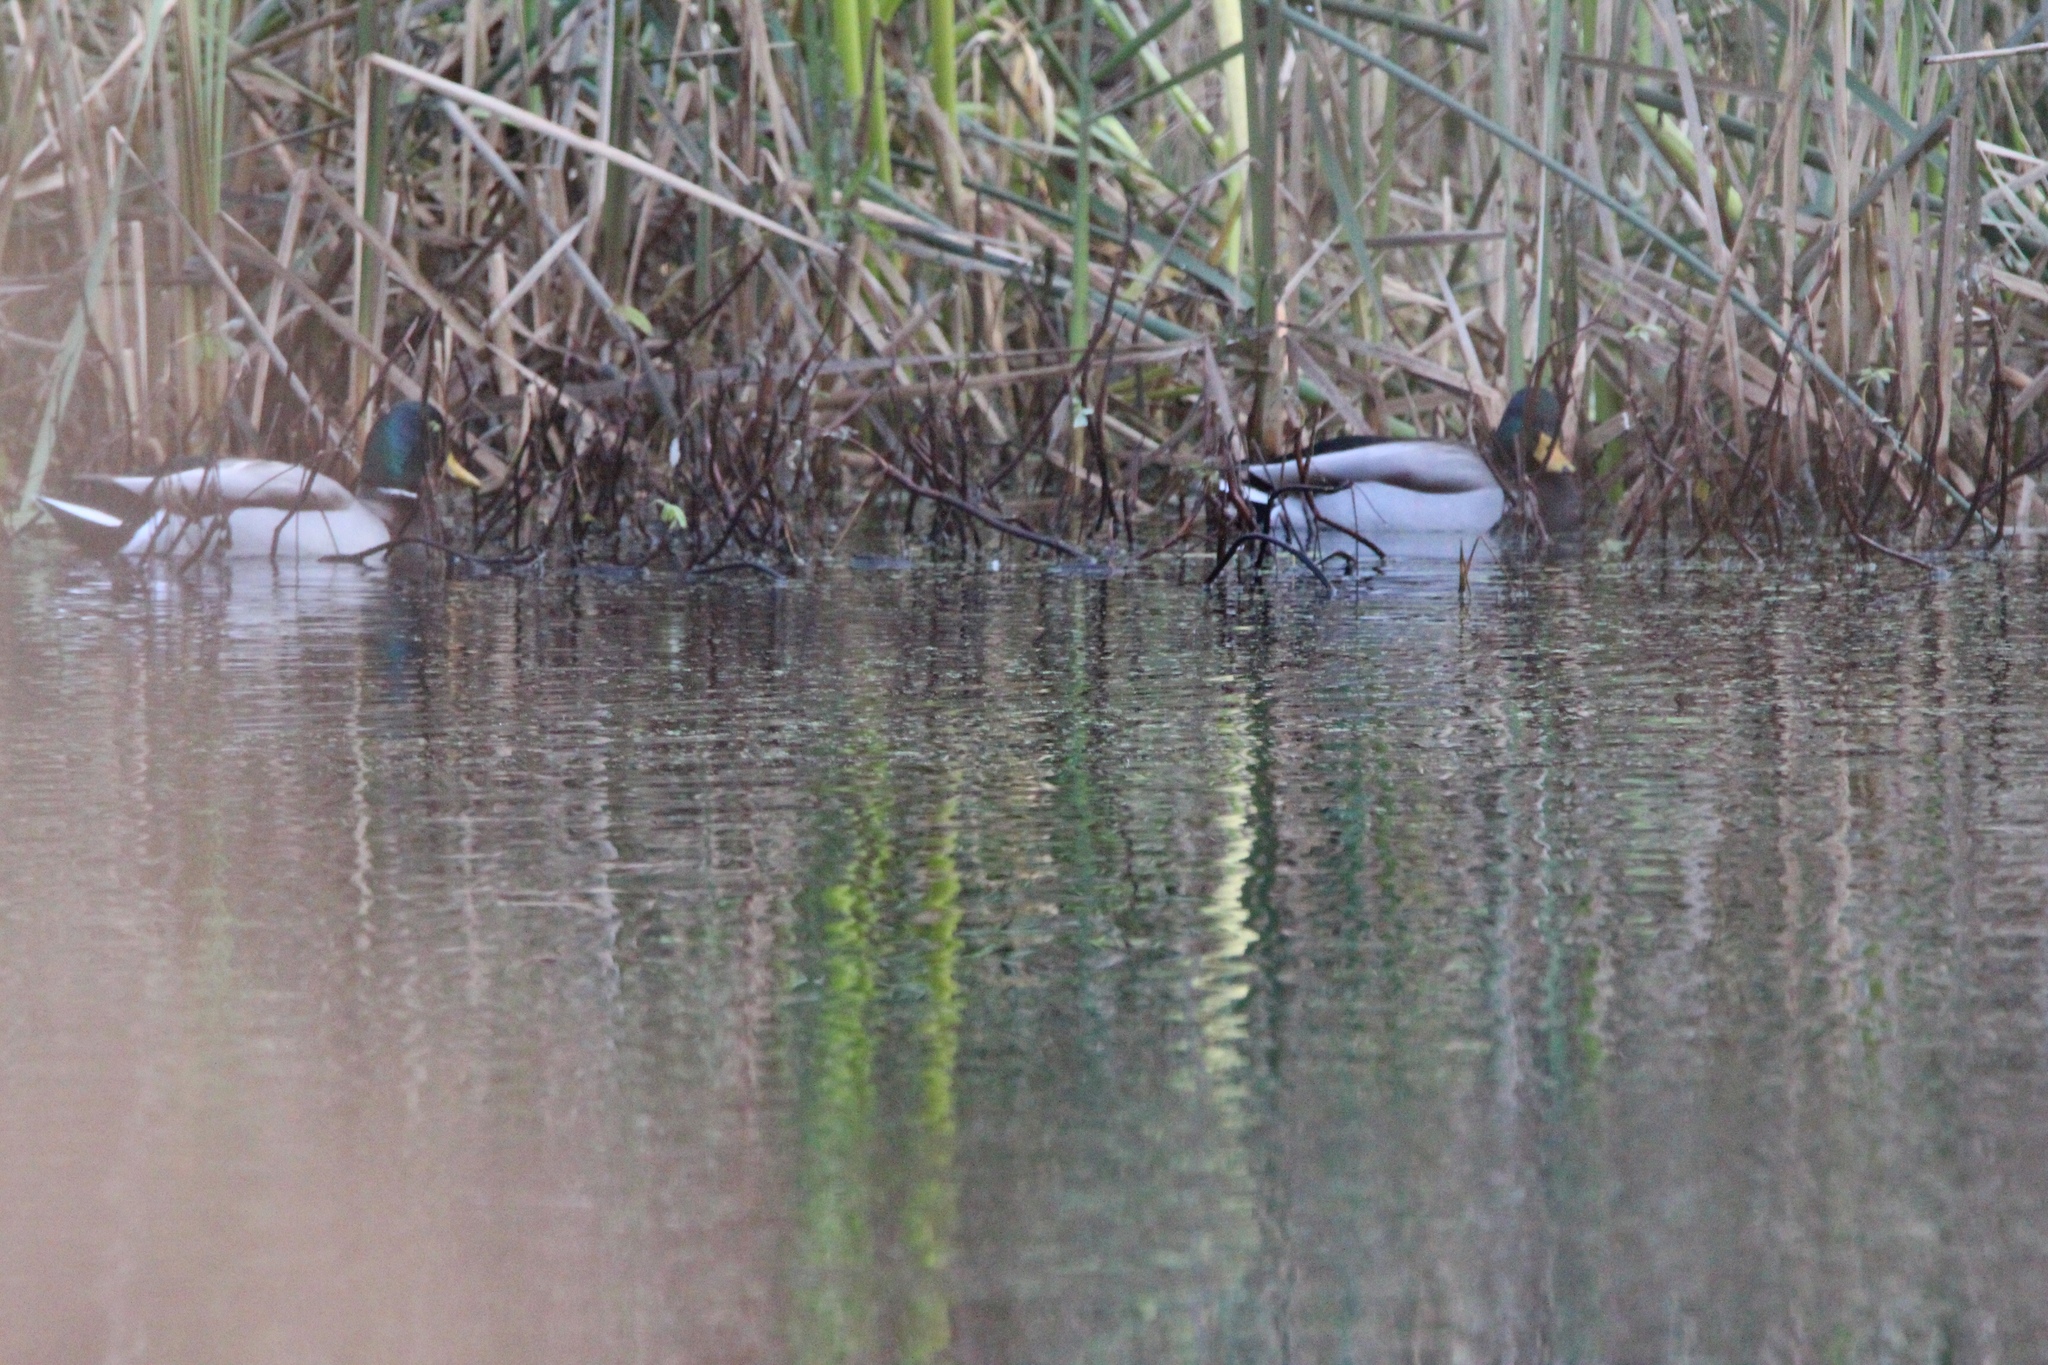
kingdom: Animalia
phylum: Chordata
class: Aves
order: Anseriformes
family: Anatidae
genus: Anas
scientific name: Anas platyrhynchos
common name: Mallard
